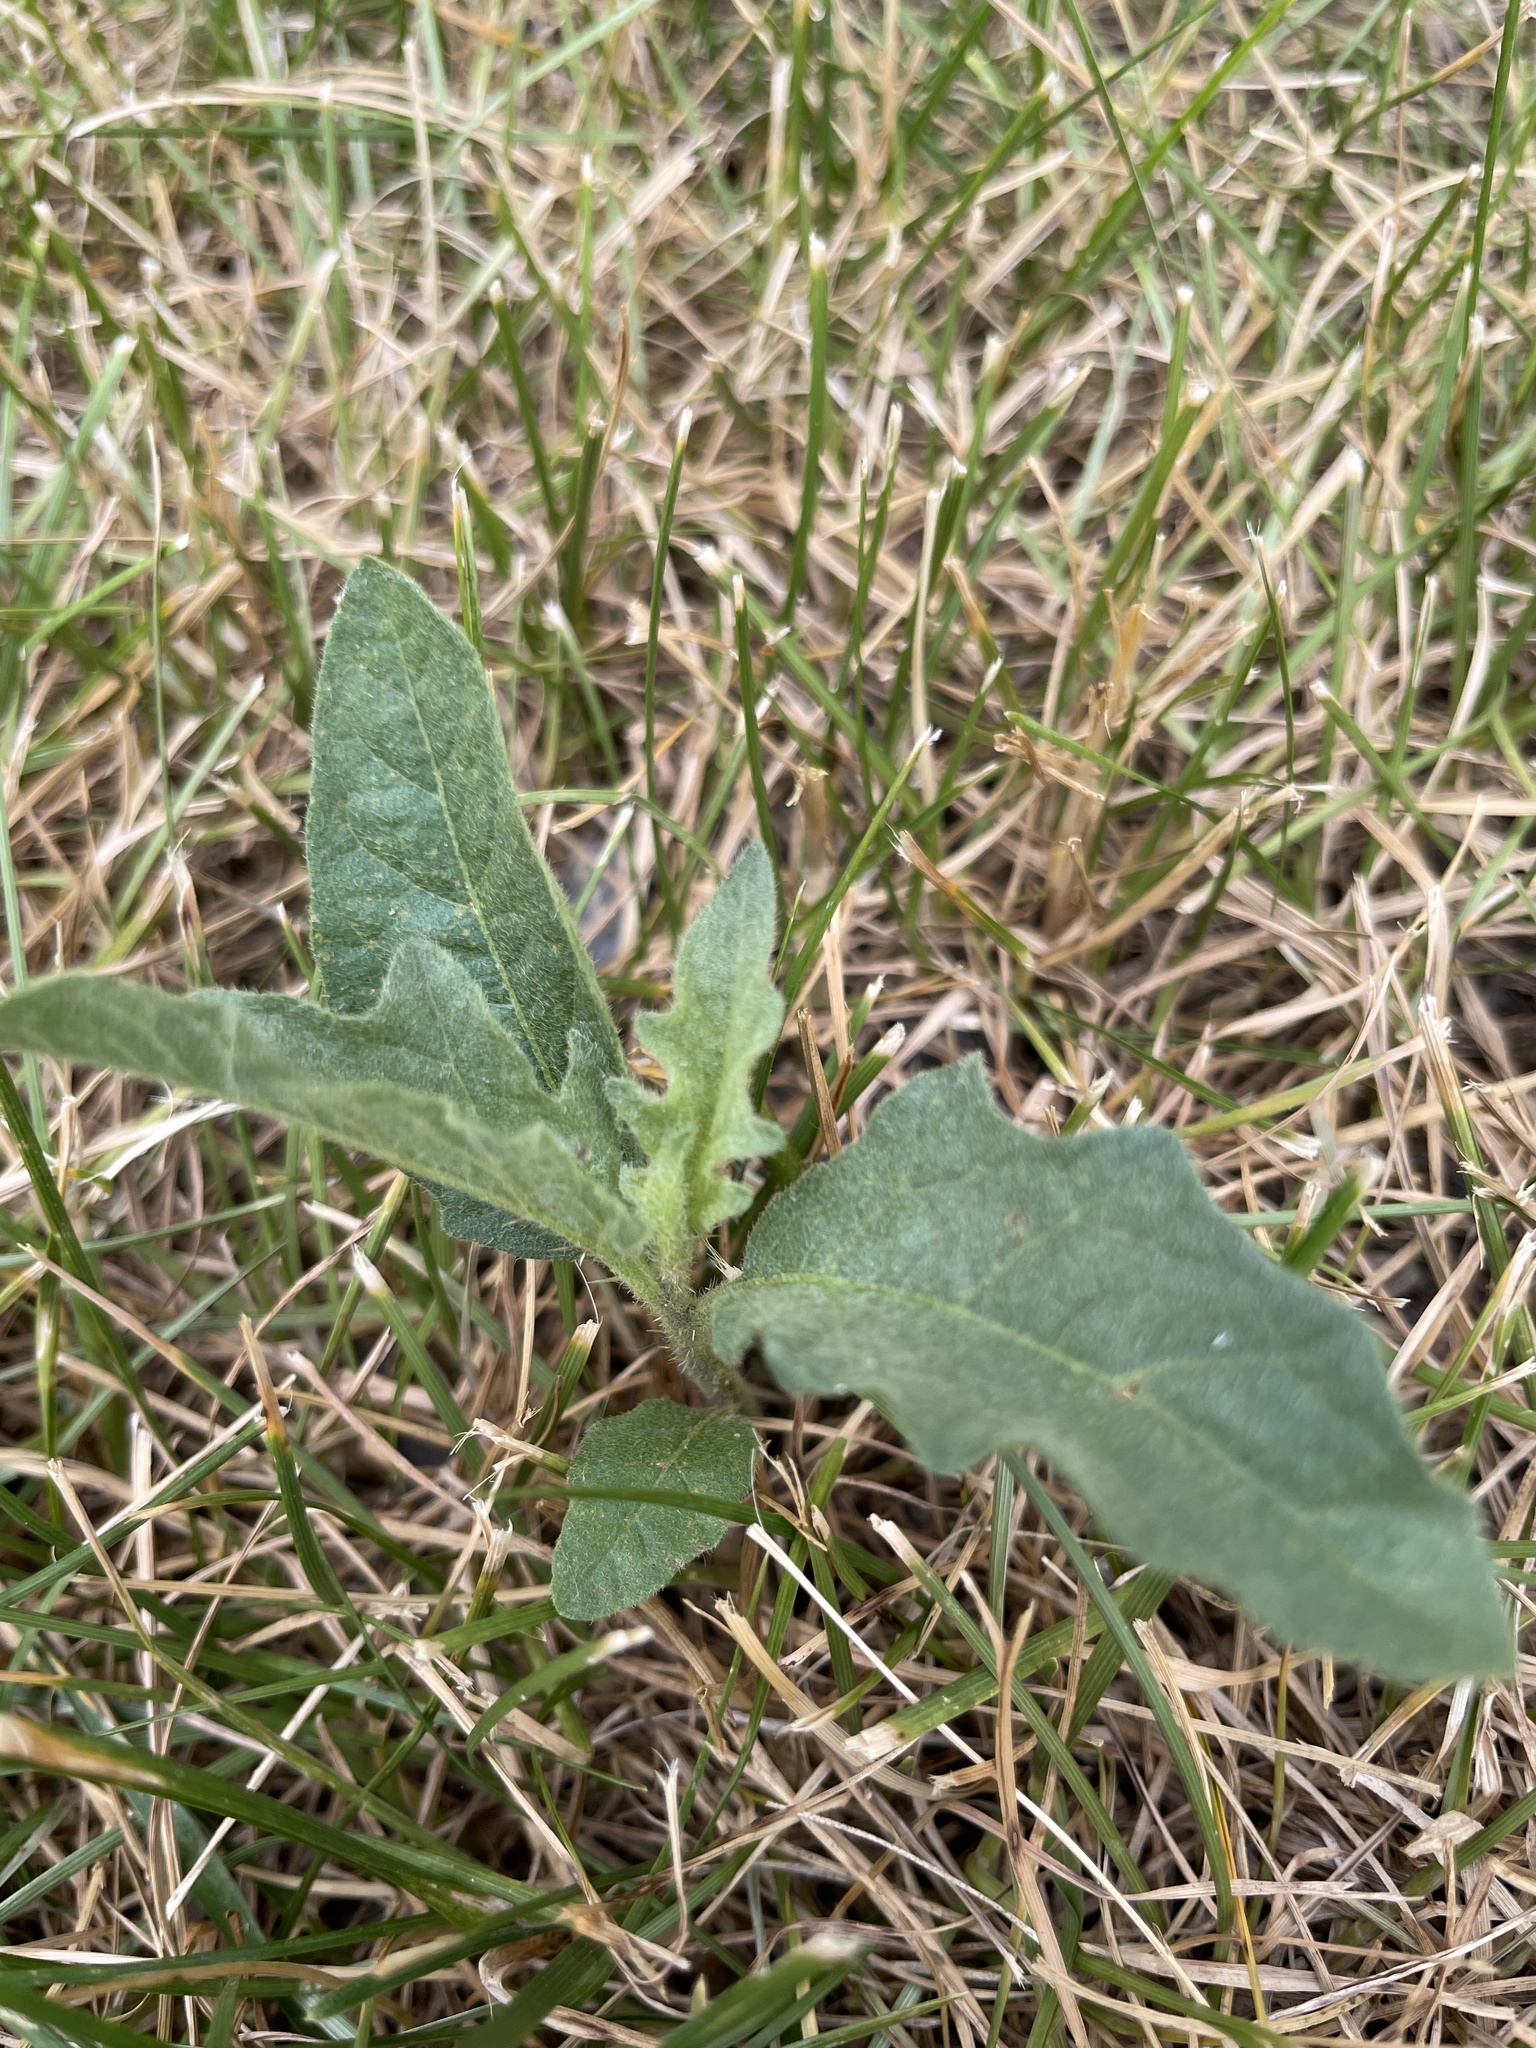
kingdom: Plantae
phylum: Tracheophyta
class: Magnoliopsida
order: Solanales
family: Solanaceae
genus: Solanum
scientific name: Solanum carolinense
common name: Horse-nettle
